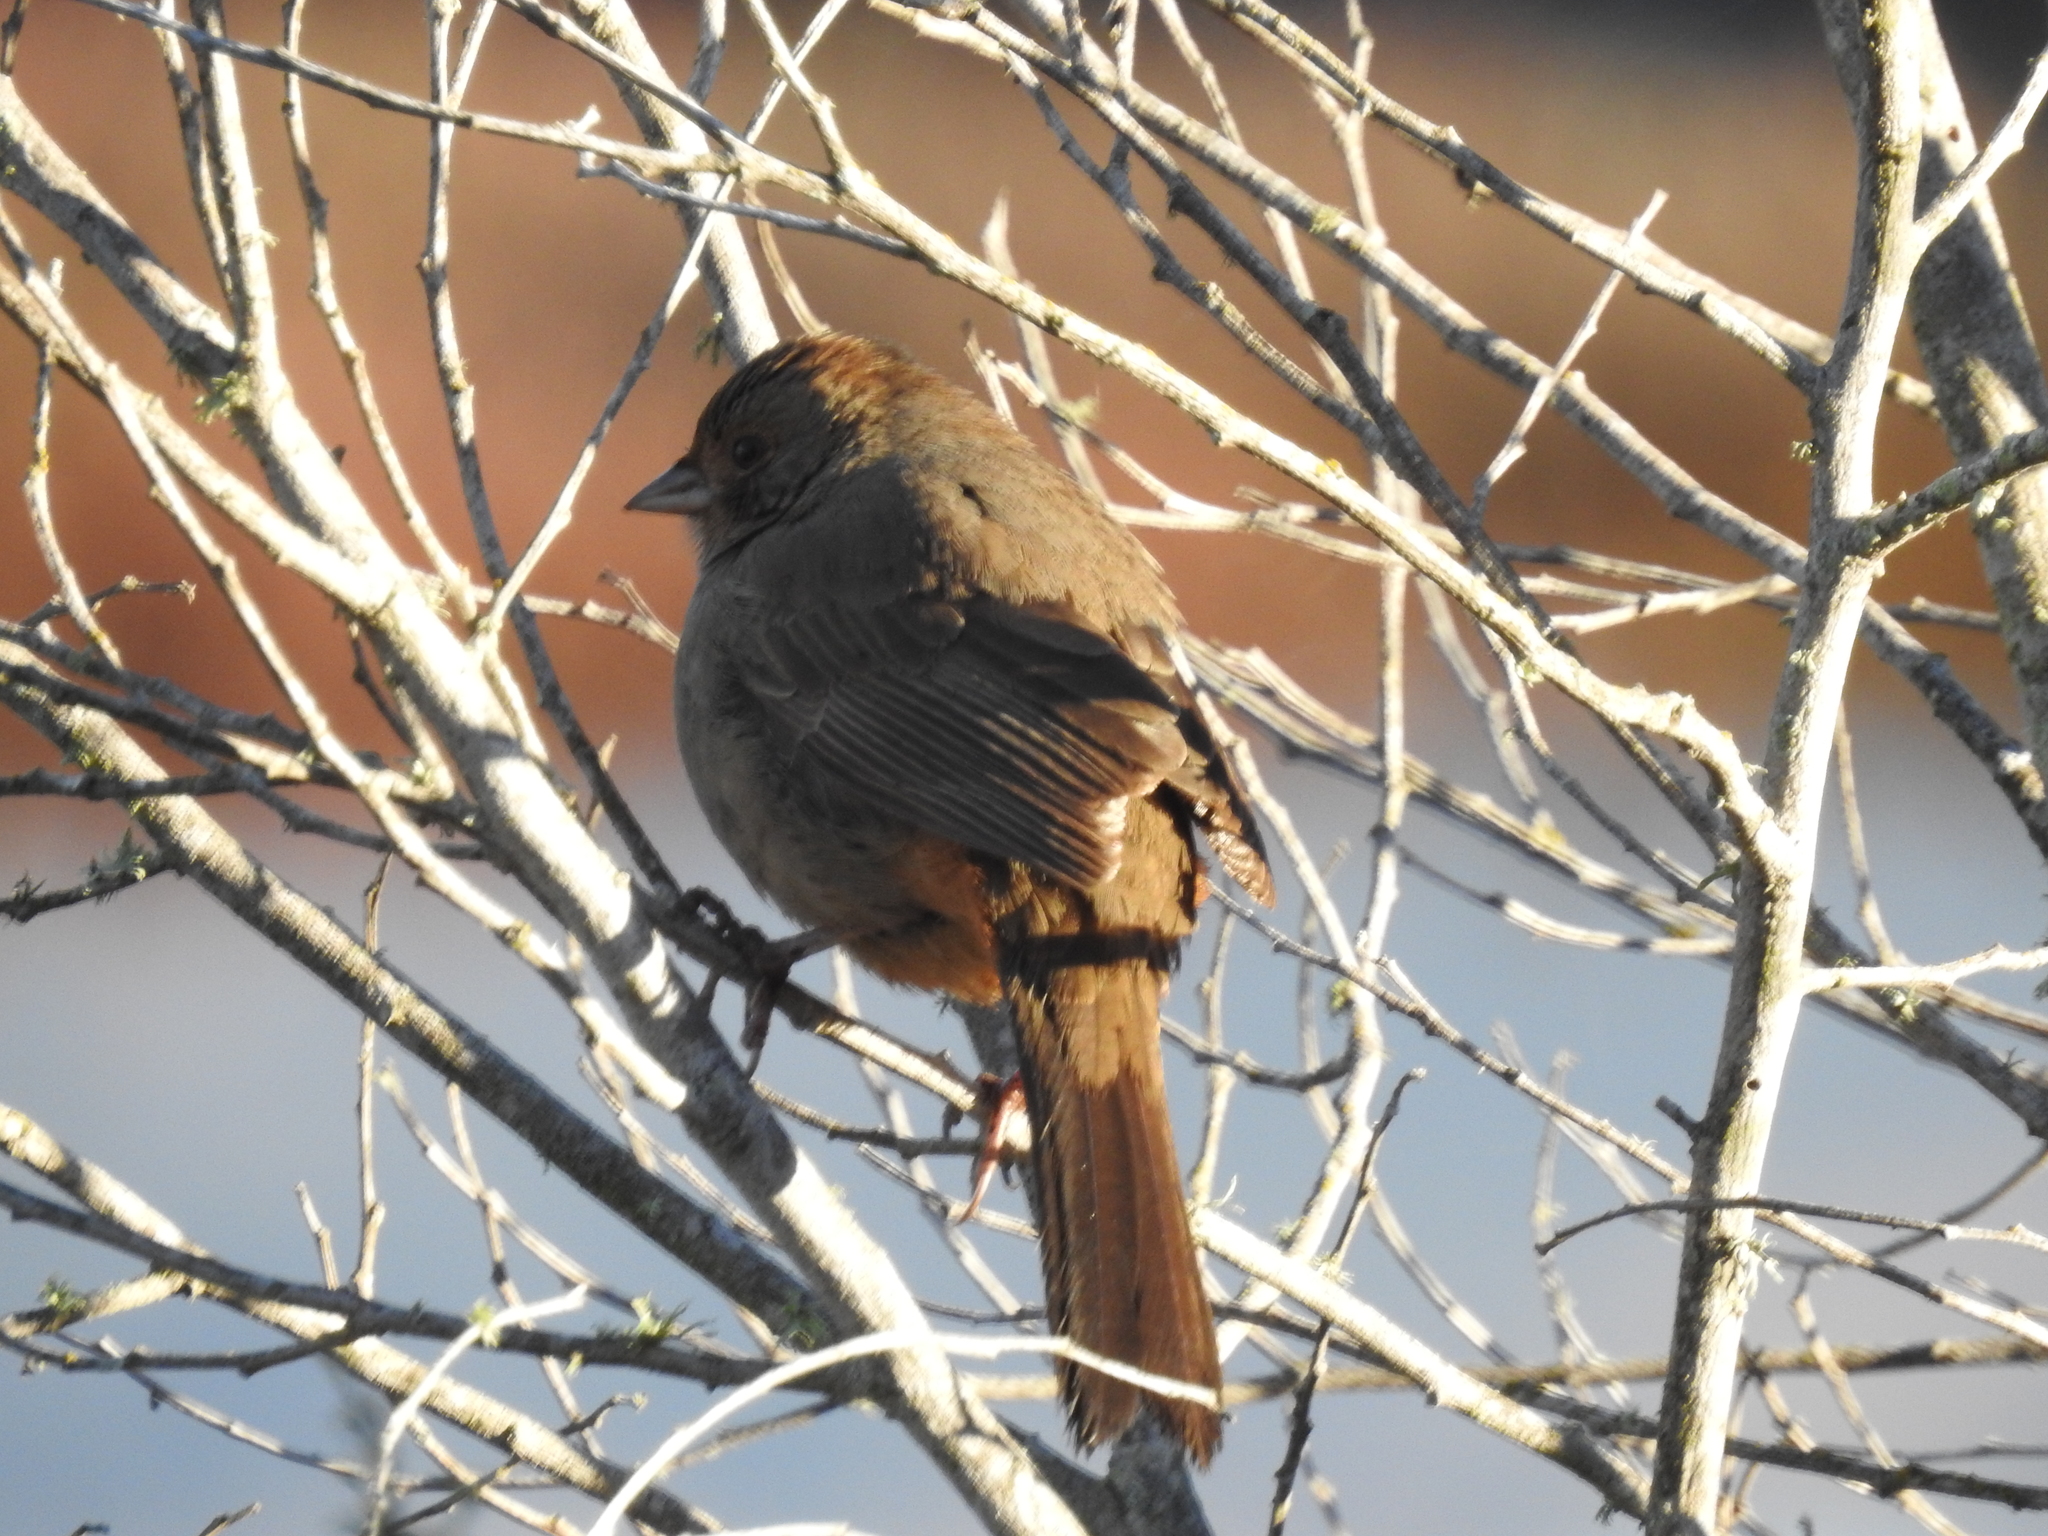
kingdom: Animalia
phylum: Chordata
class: Aves
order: Passeriformes
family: Passerellidae
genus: Melozone
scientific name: Melozone crissalis
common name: California towhee
